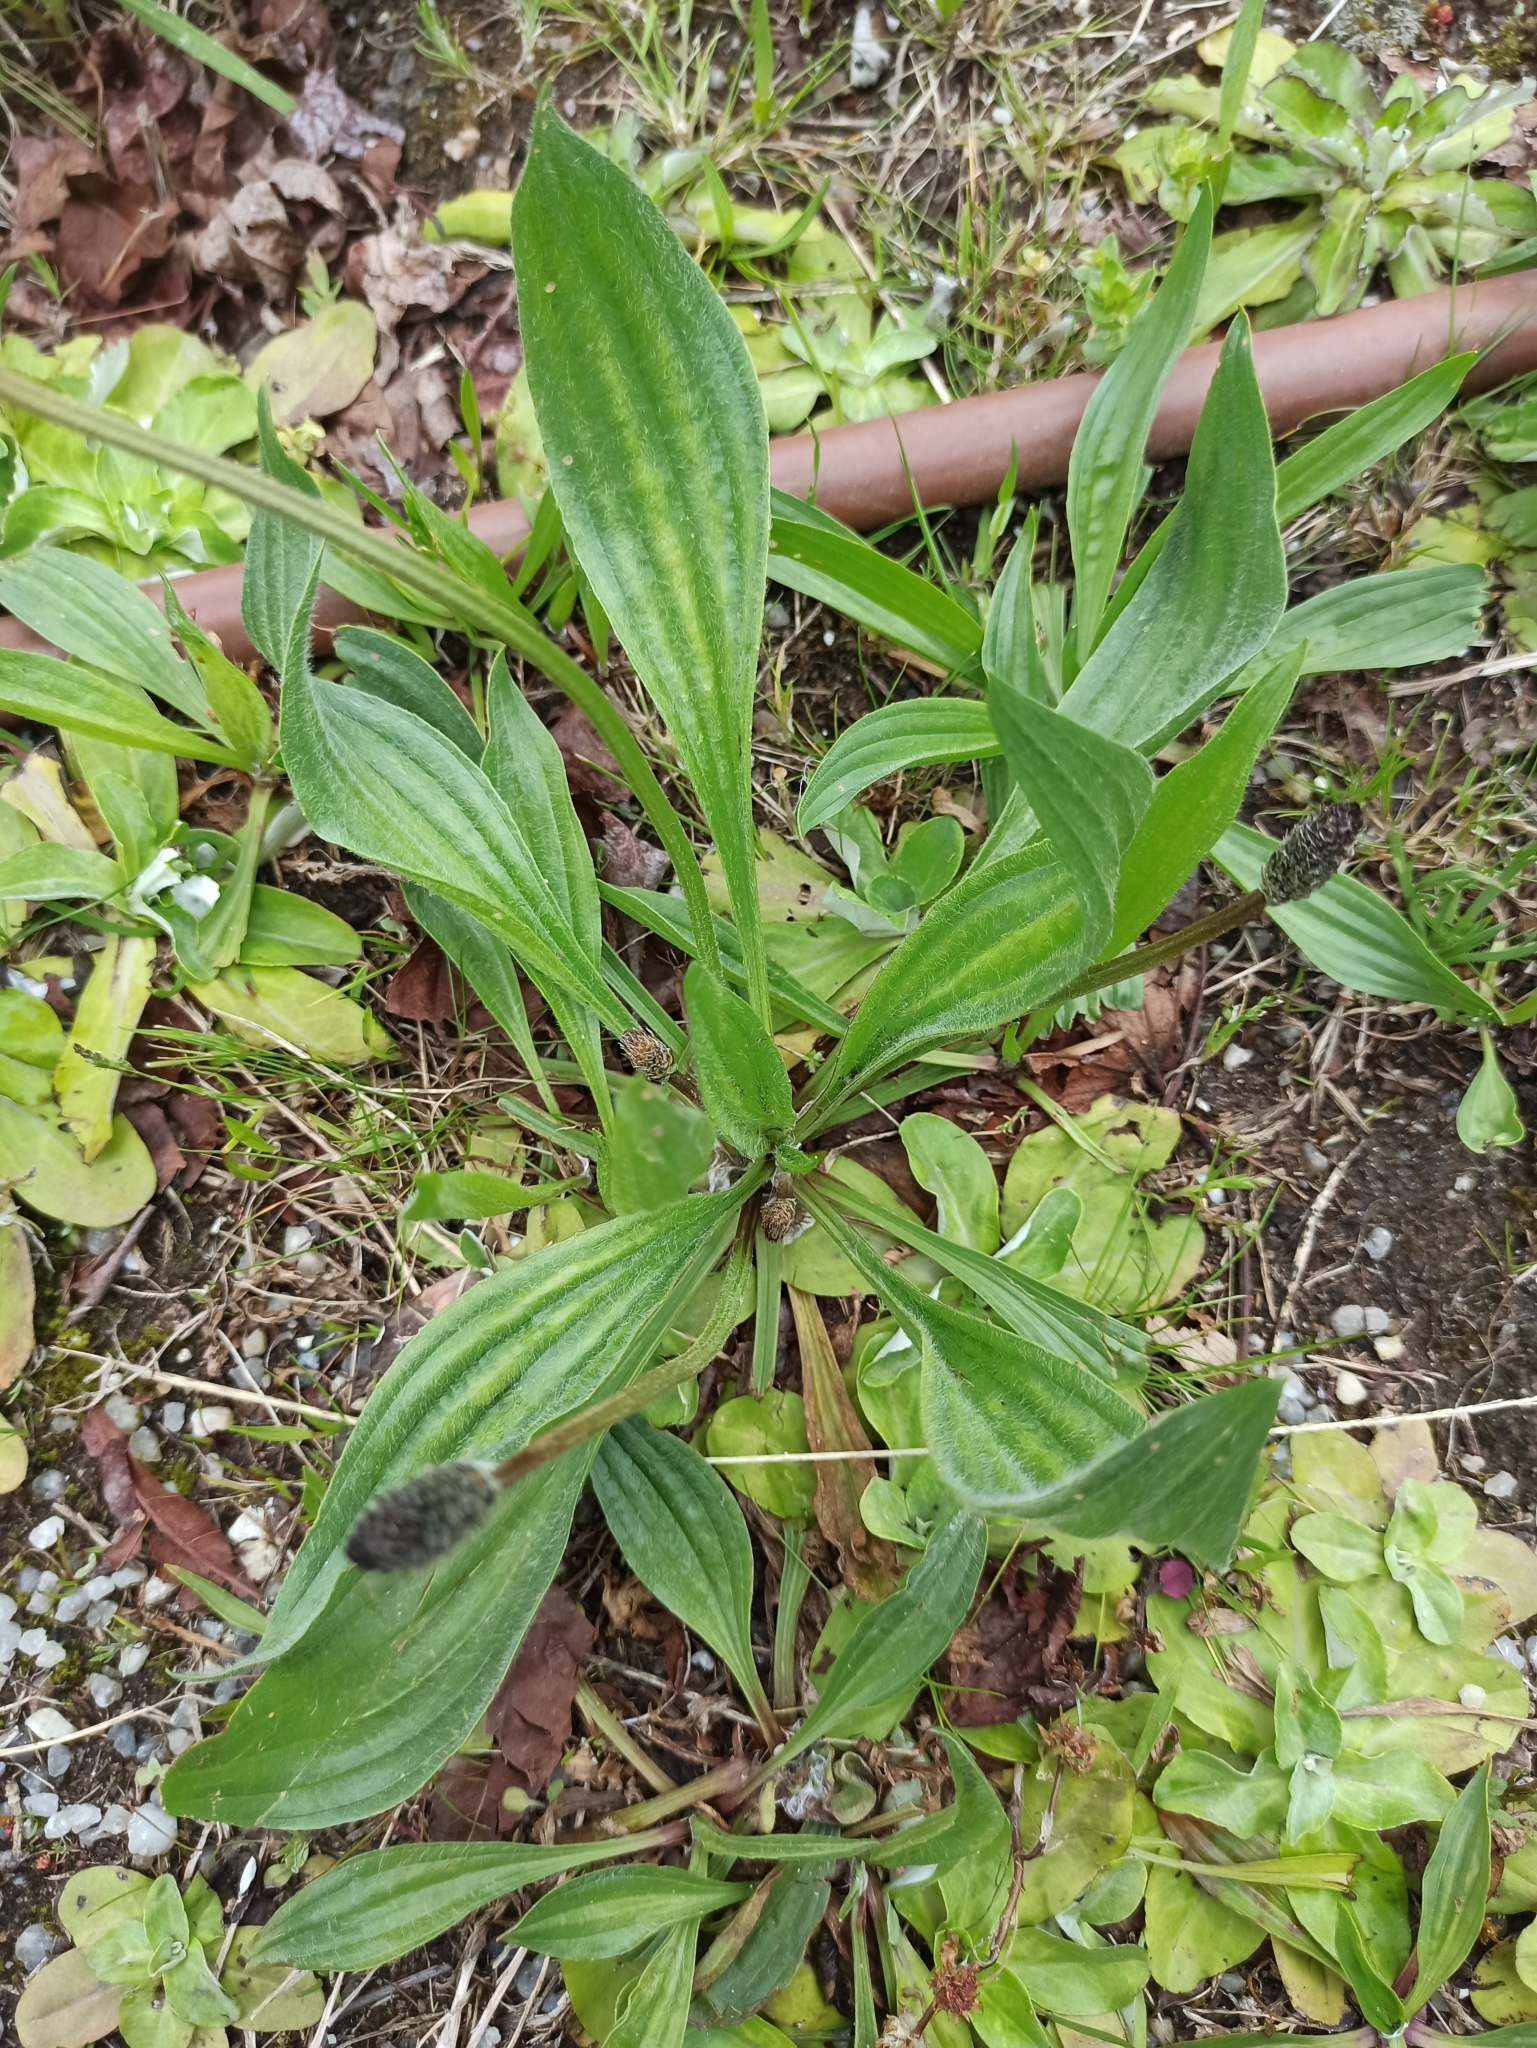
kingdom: Plantae
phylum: Tracheophyta
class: Magnoliopsida
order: Lamiales
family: Plantaginaceae
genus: Plantago
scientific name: Plantago lanceolata
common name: Ribwort plantain
